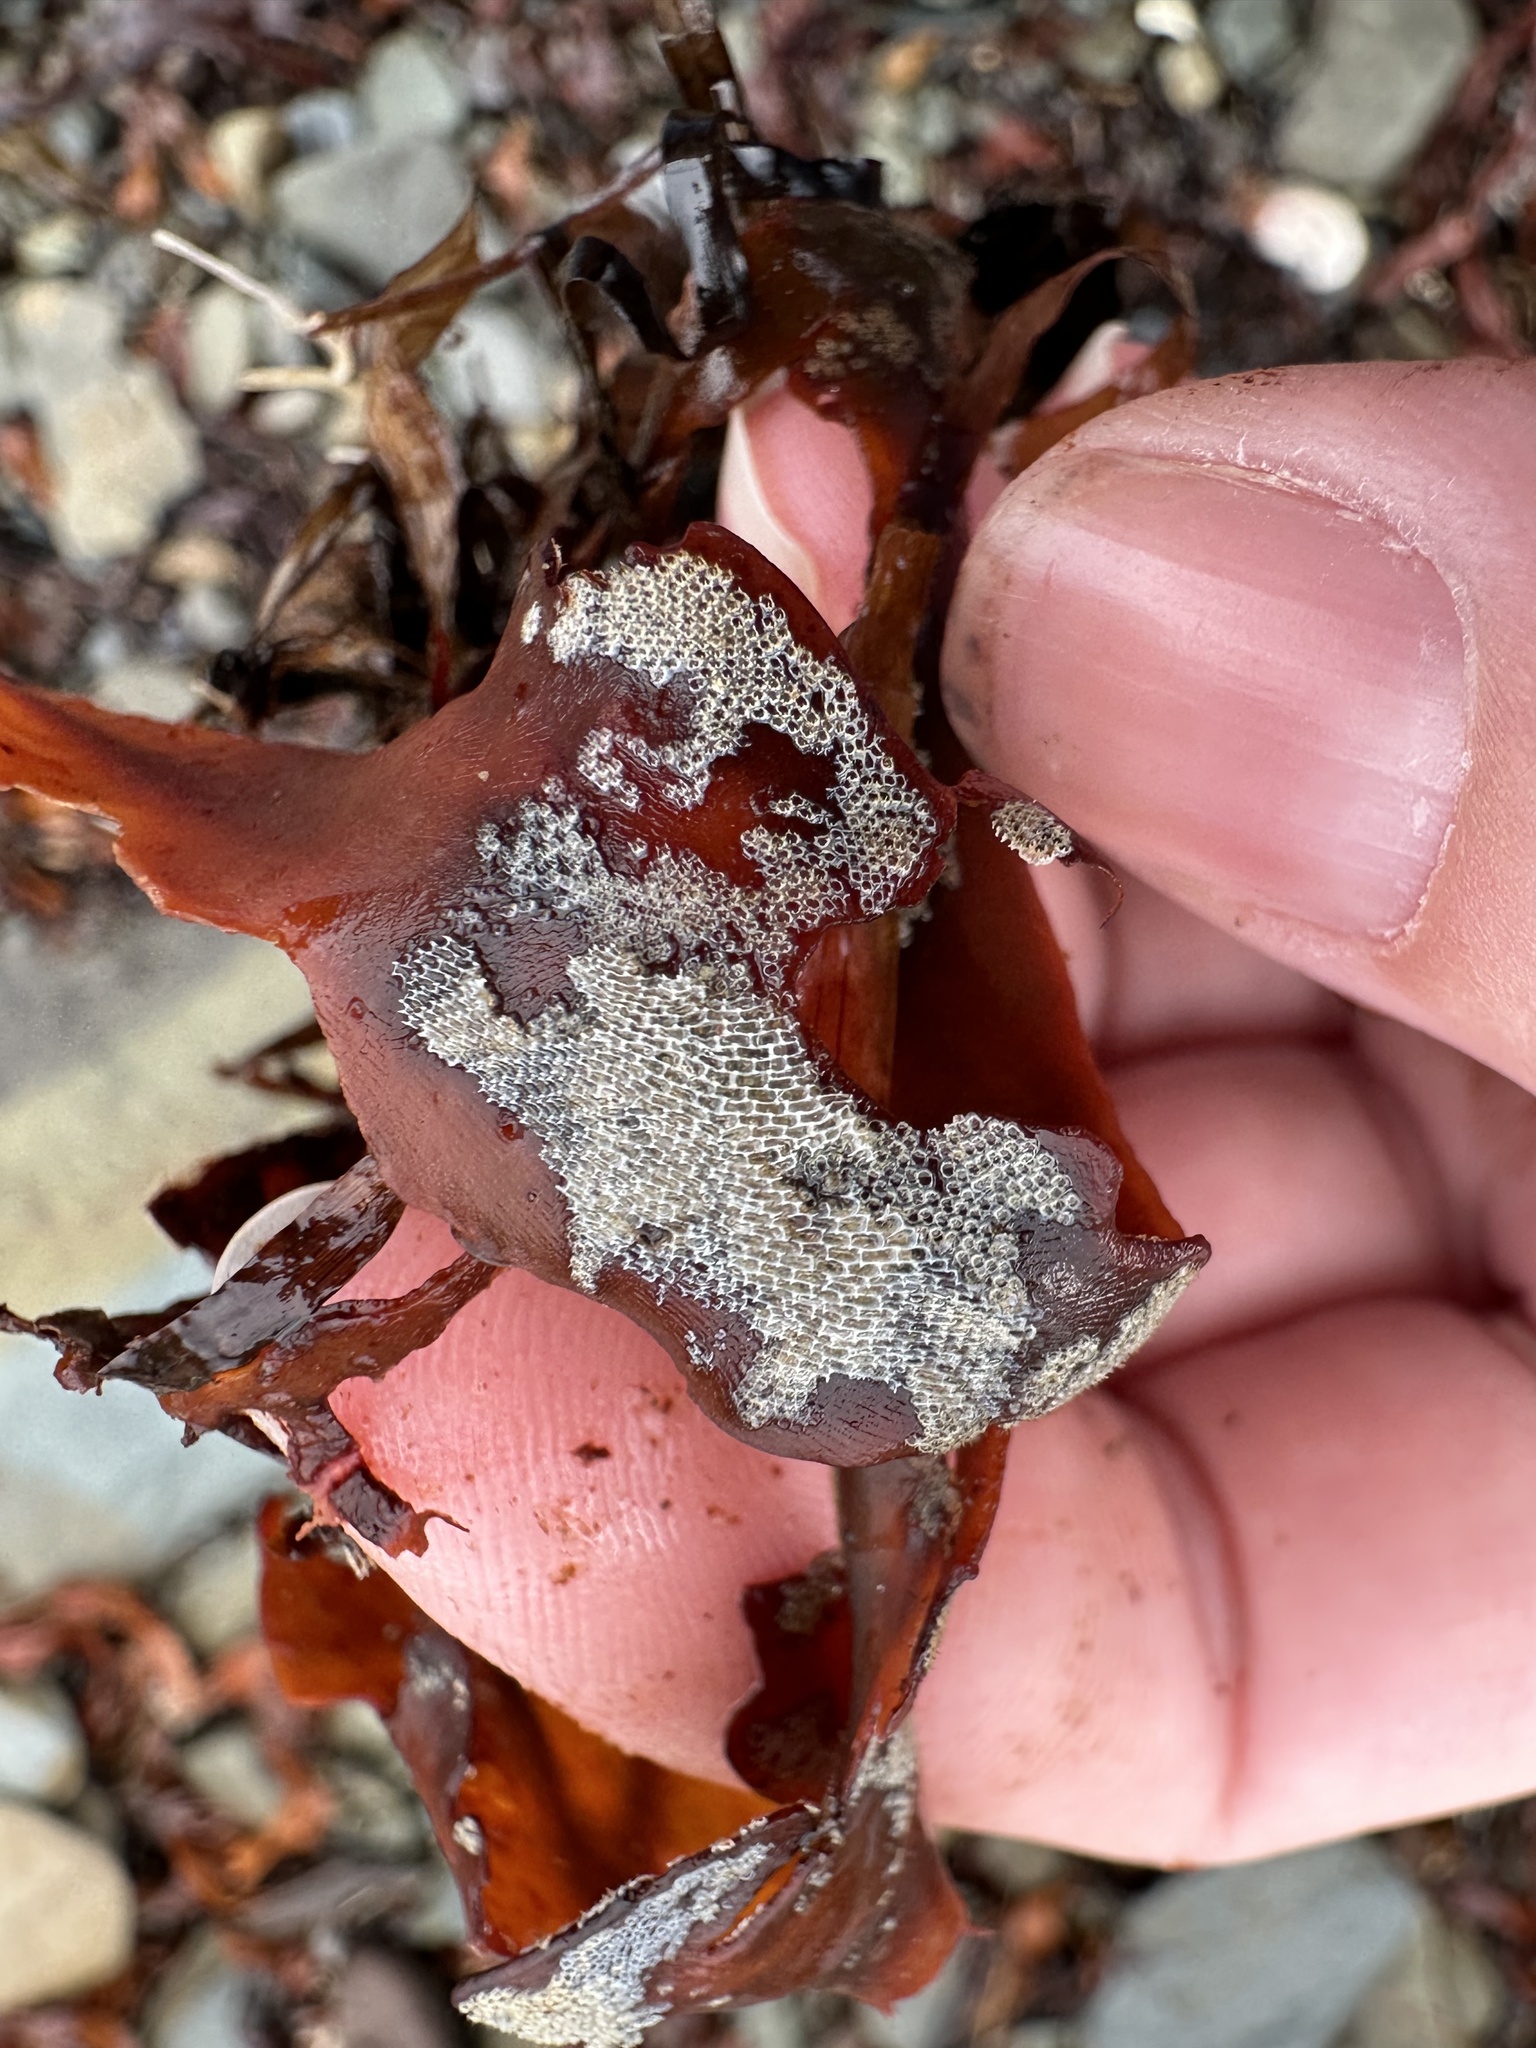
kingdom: Animalia
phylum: Bryozoa
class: Gymnolaemata
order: Cheilostomatida
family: Membraniporidae
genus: Membranipora
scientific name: Membranipora membranacea
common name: Sea mat
